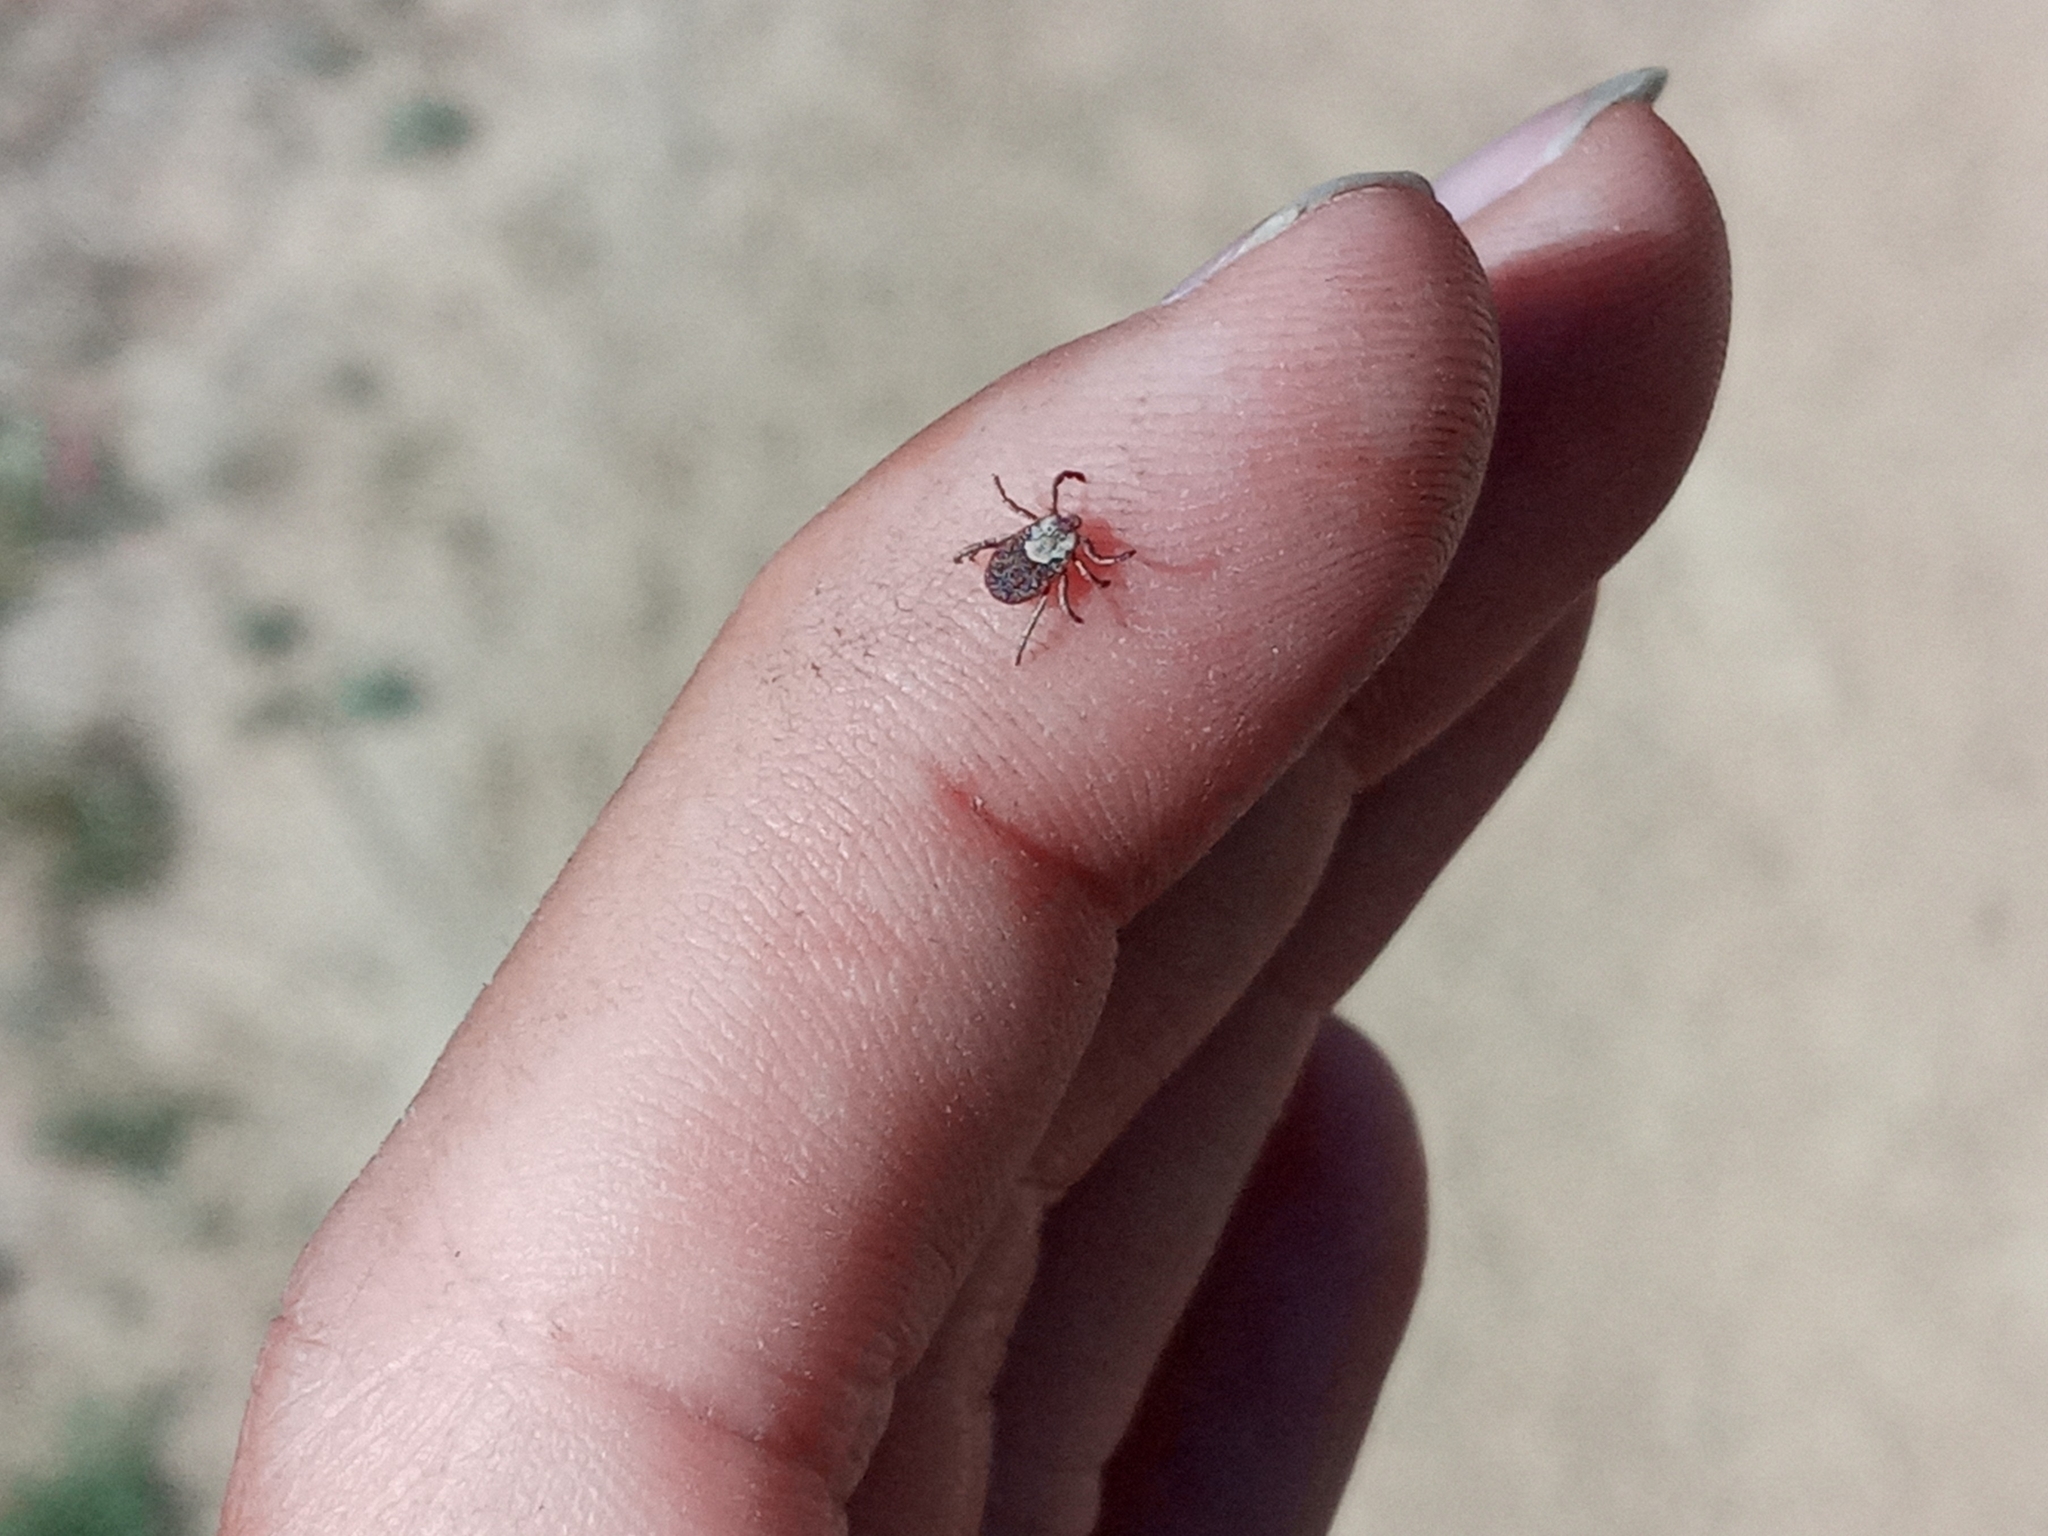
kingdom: Animalia
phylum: Arthropoda
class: Arachnida
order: Ixodida
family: Ixodidae
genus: Dermacentor
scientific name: Dermacentor occidentalis
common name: Net tick
